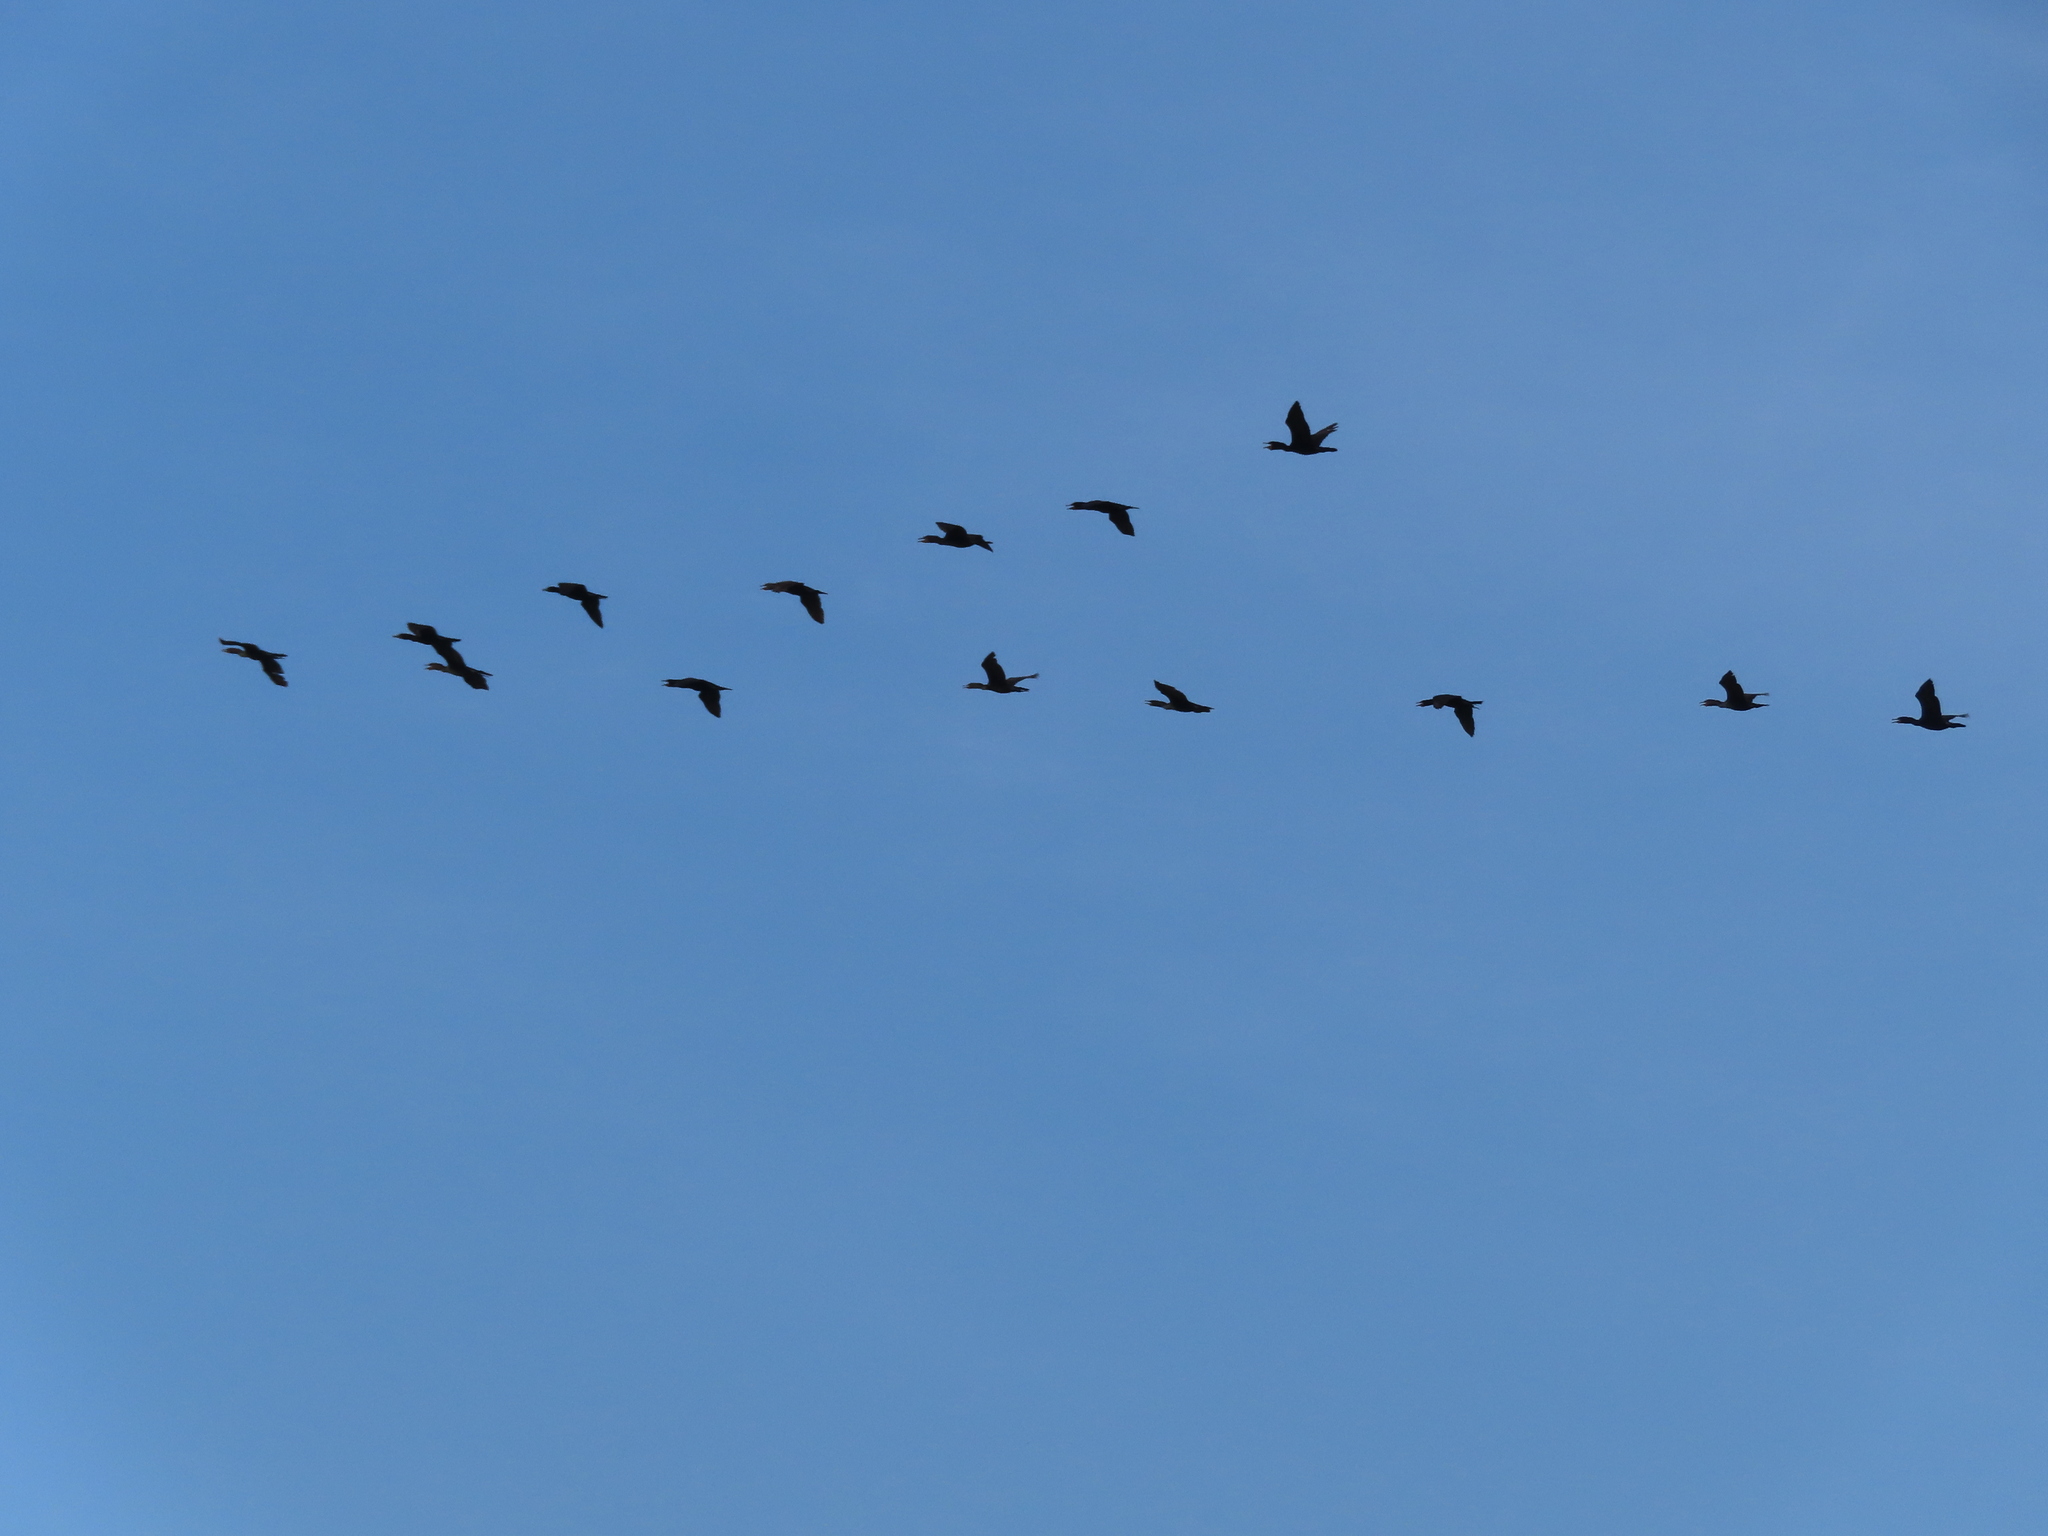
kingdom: Animalia
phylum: Chordata
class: Aves
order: Suliformes
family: Phalacrocoracidae
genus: Phalacrocorax
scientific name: Phalacrocorax auritus
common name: Double-crested cormorant
